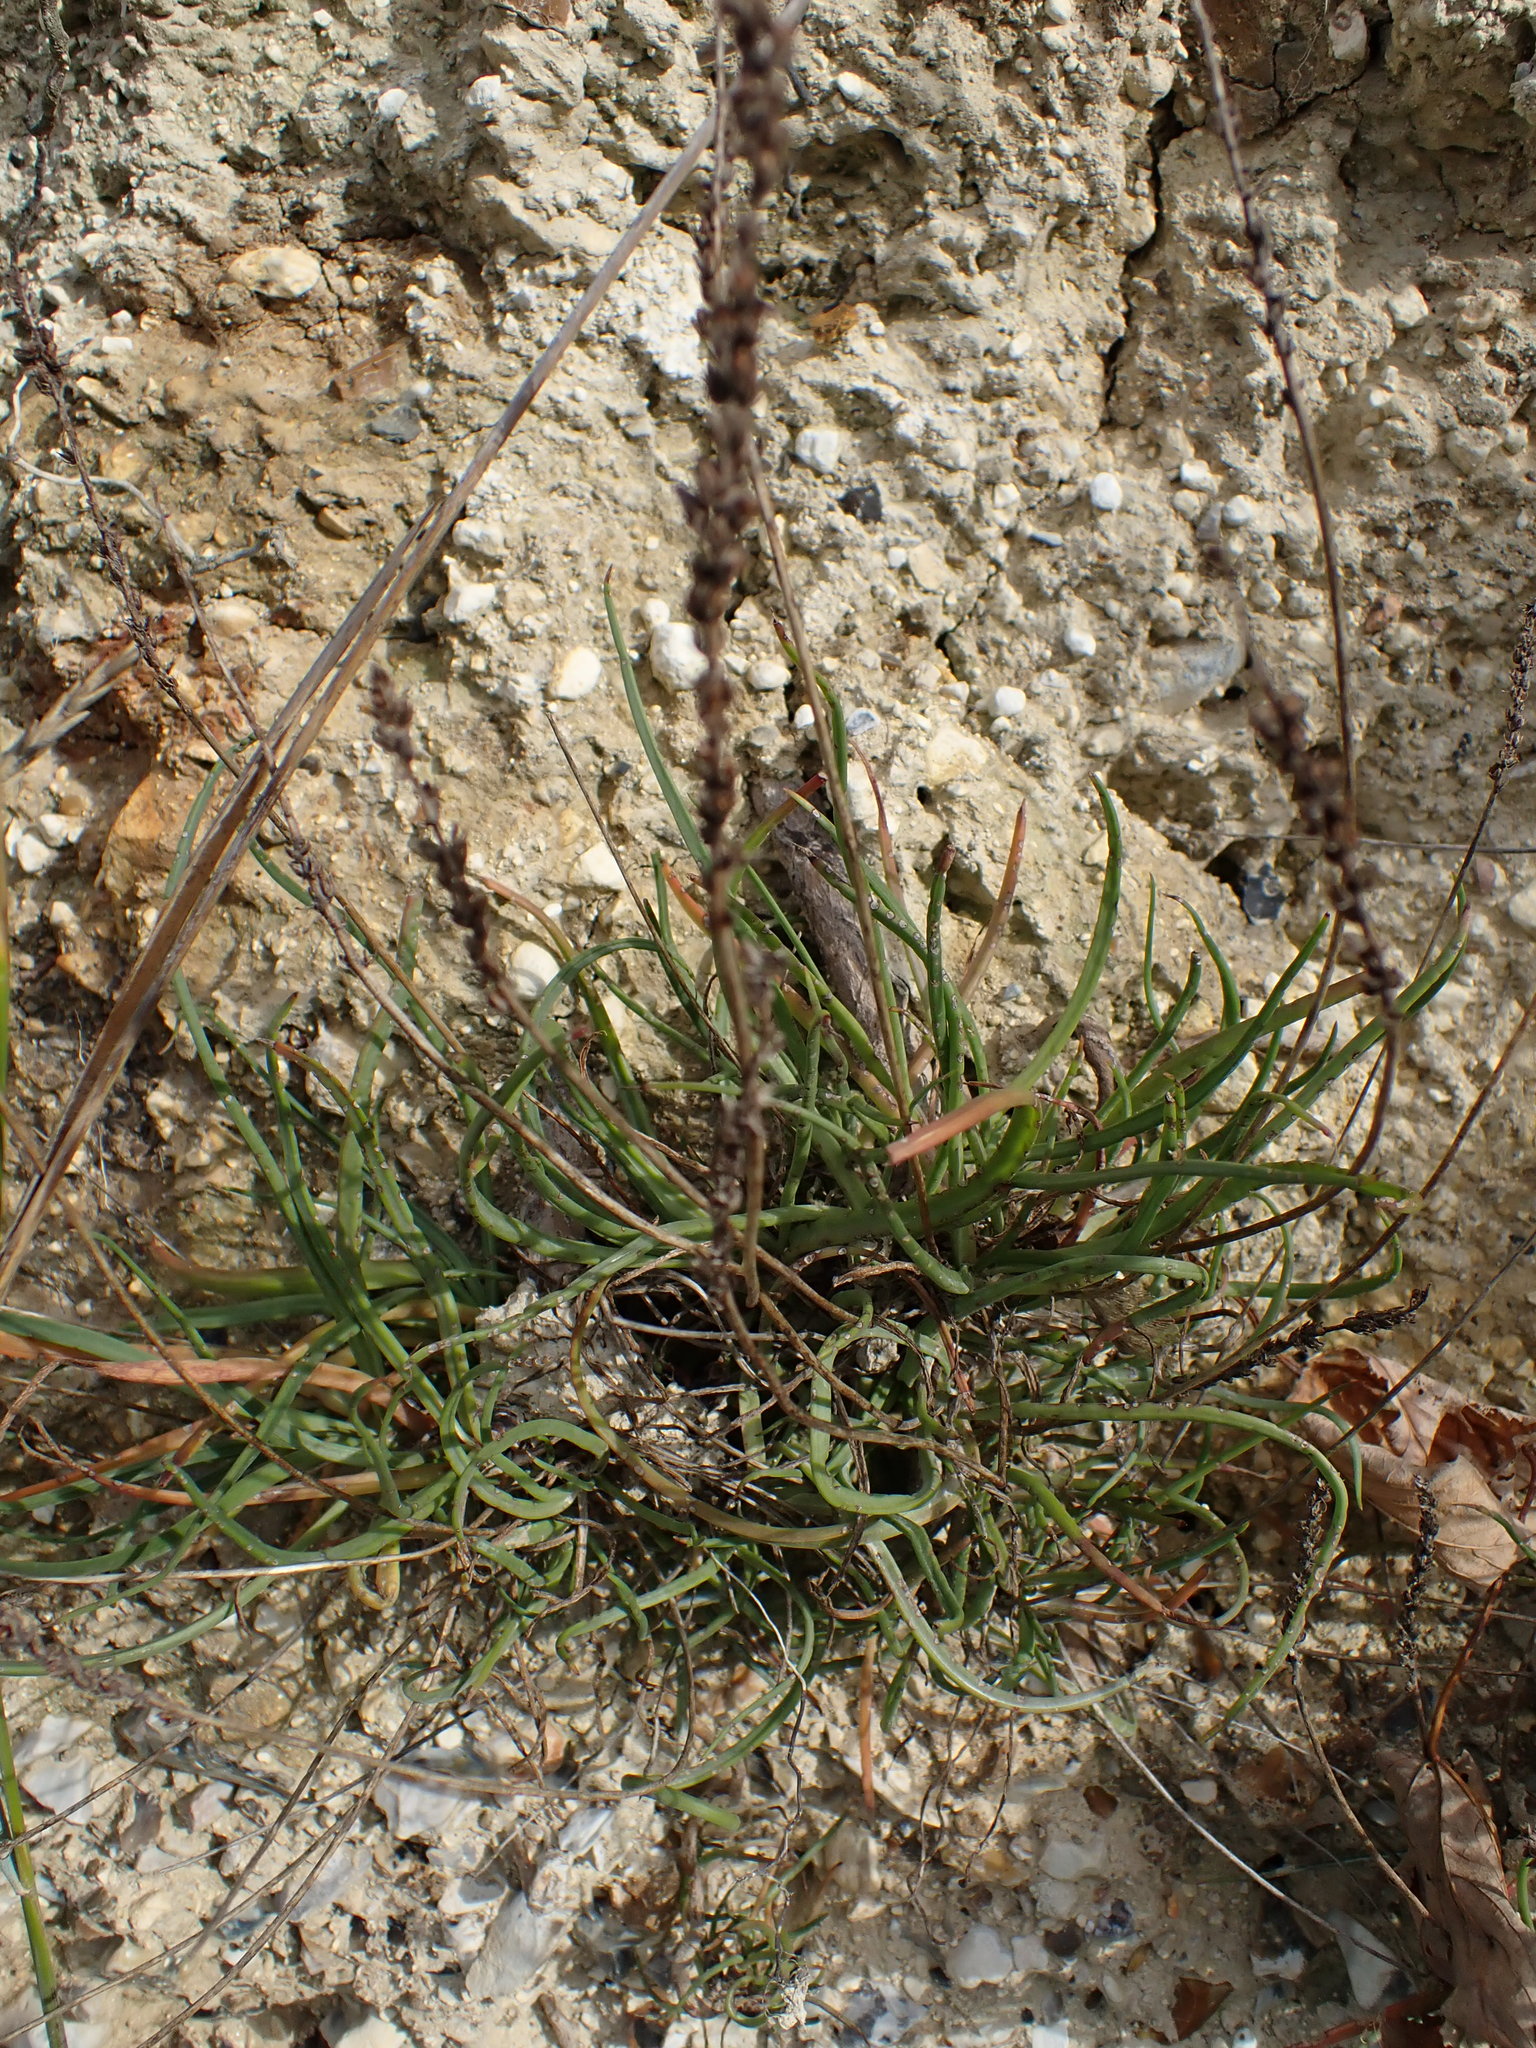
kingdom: Plantae
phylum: Tracheophyta
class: Magnoliopsida
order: Lamiales
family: Plantaginaceae
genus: Plantago
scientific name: Plantago maritima
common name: Sea plantain
